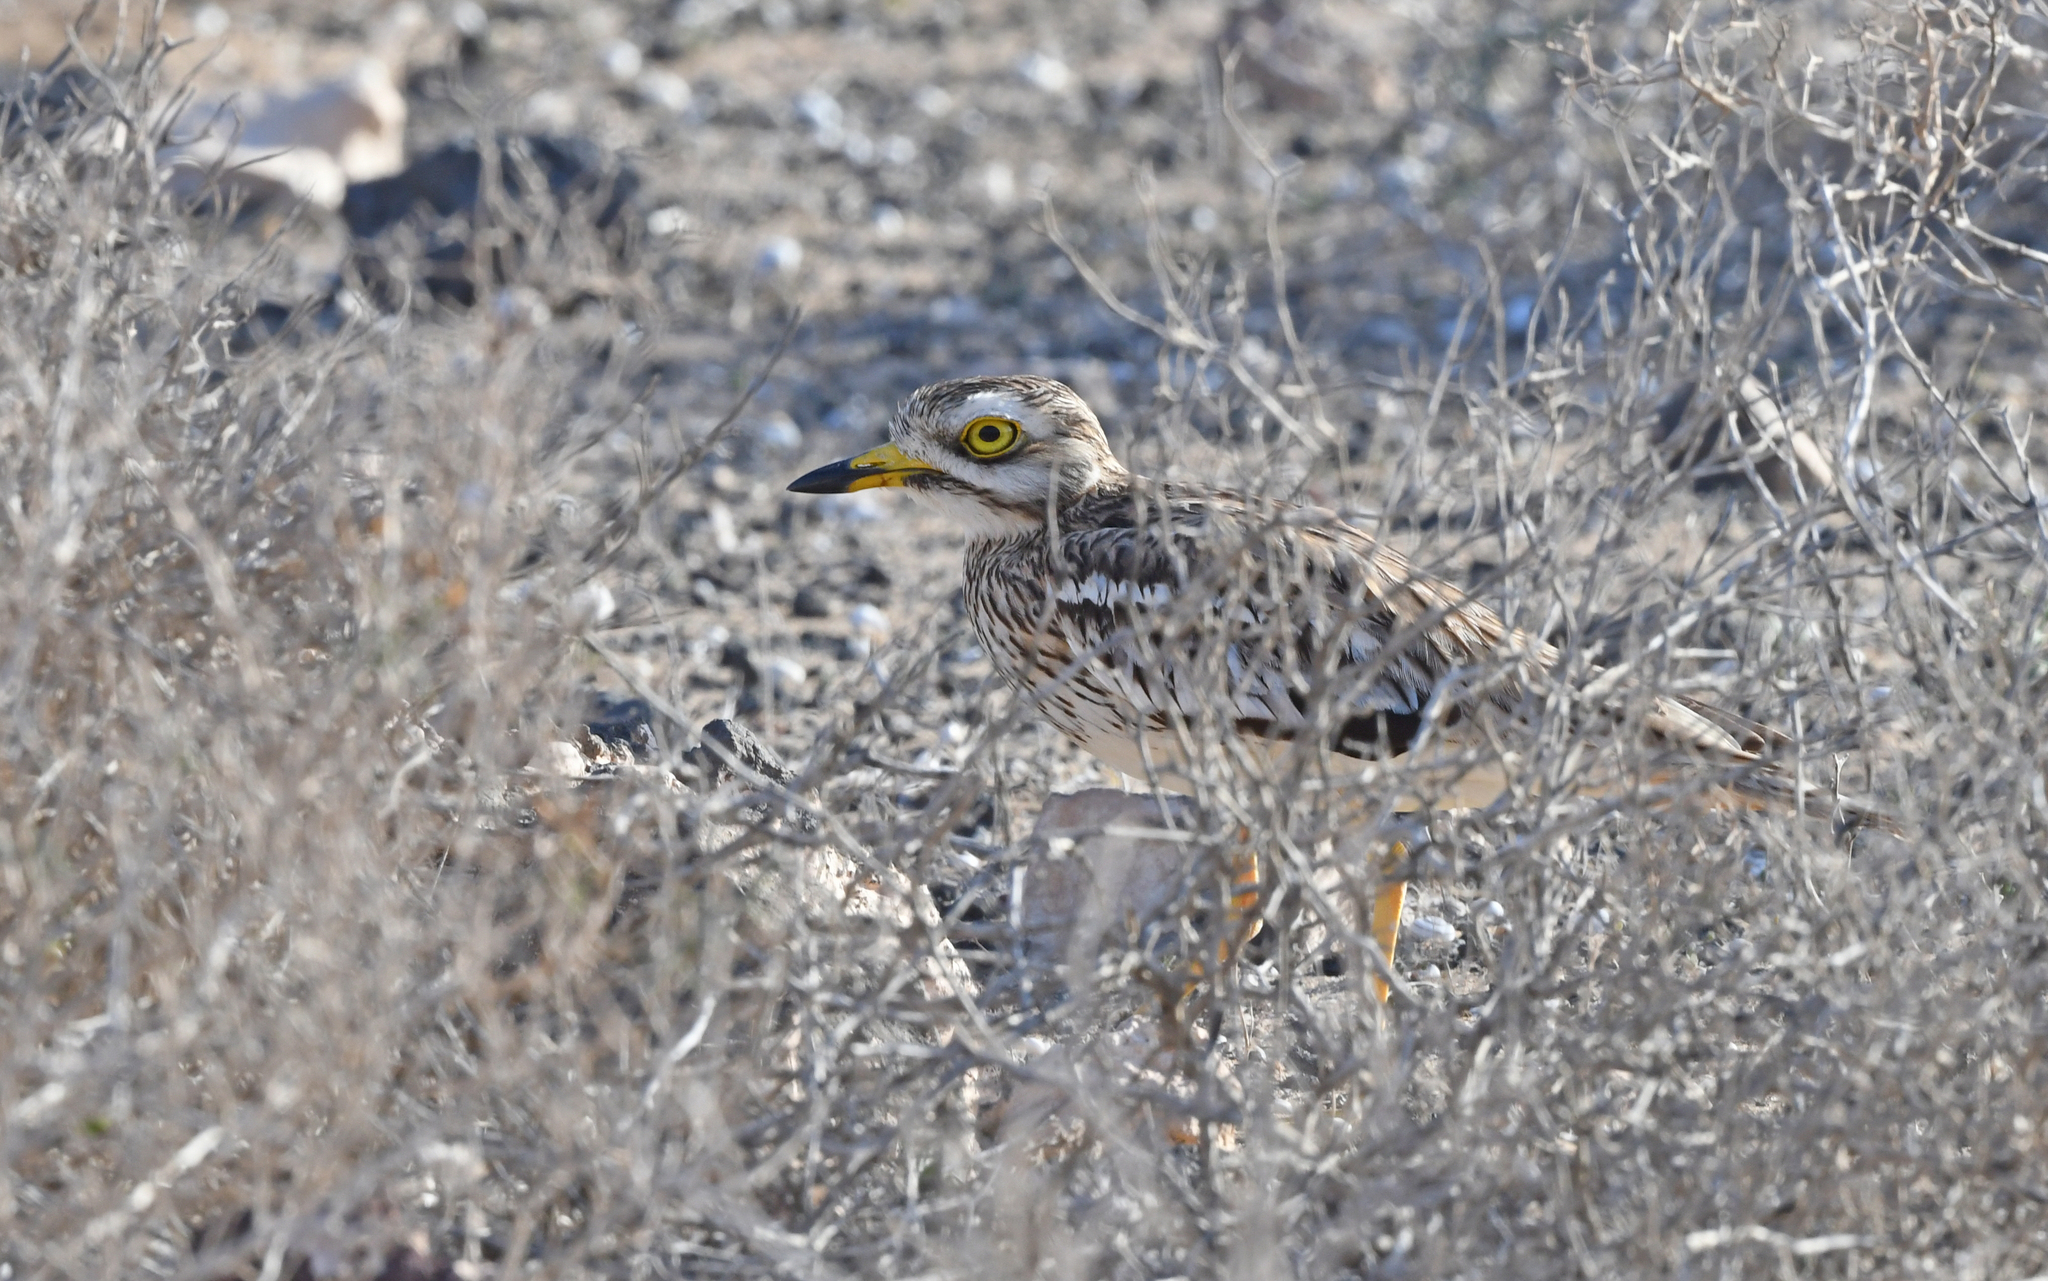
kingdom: Animalia
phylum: Chordata
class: Aves
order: Charadriiformes
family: Burhinidae
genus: Burhinus
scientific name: Burhinus oedicnemus
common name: Eurasian stone-curlew
